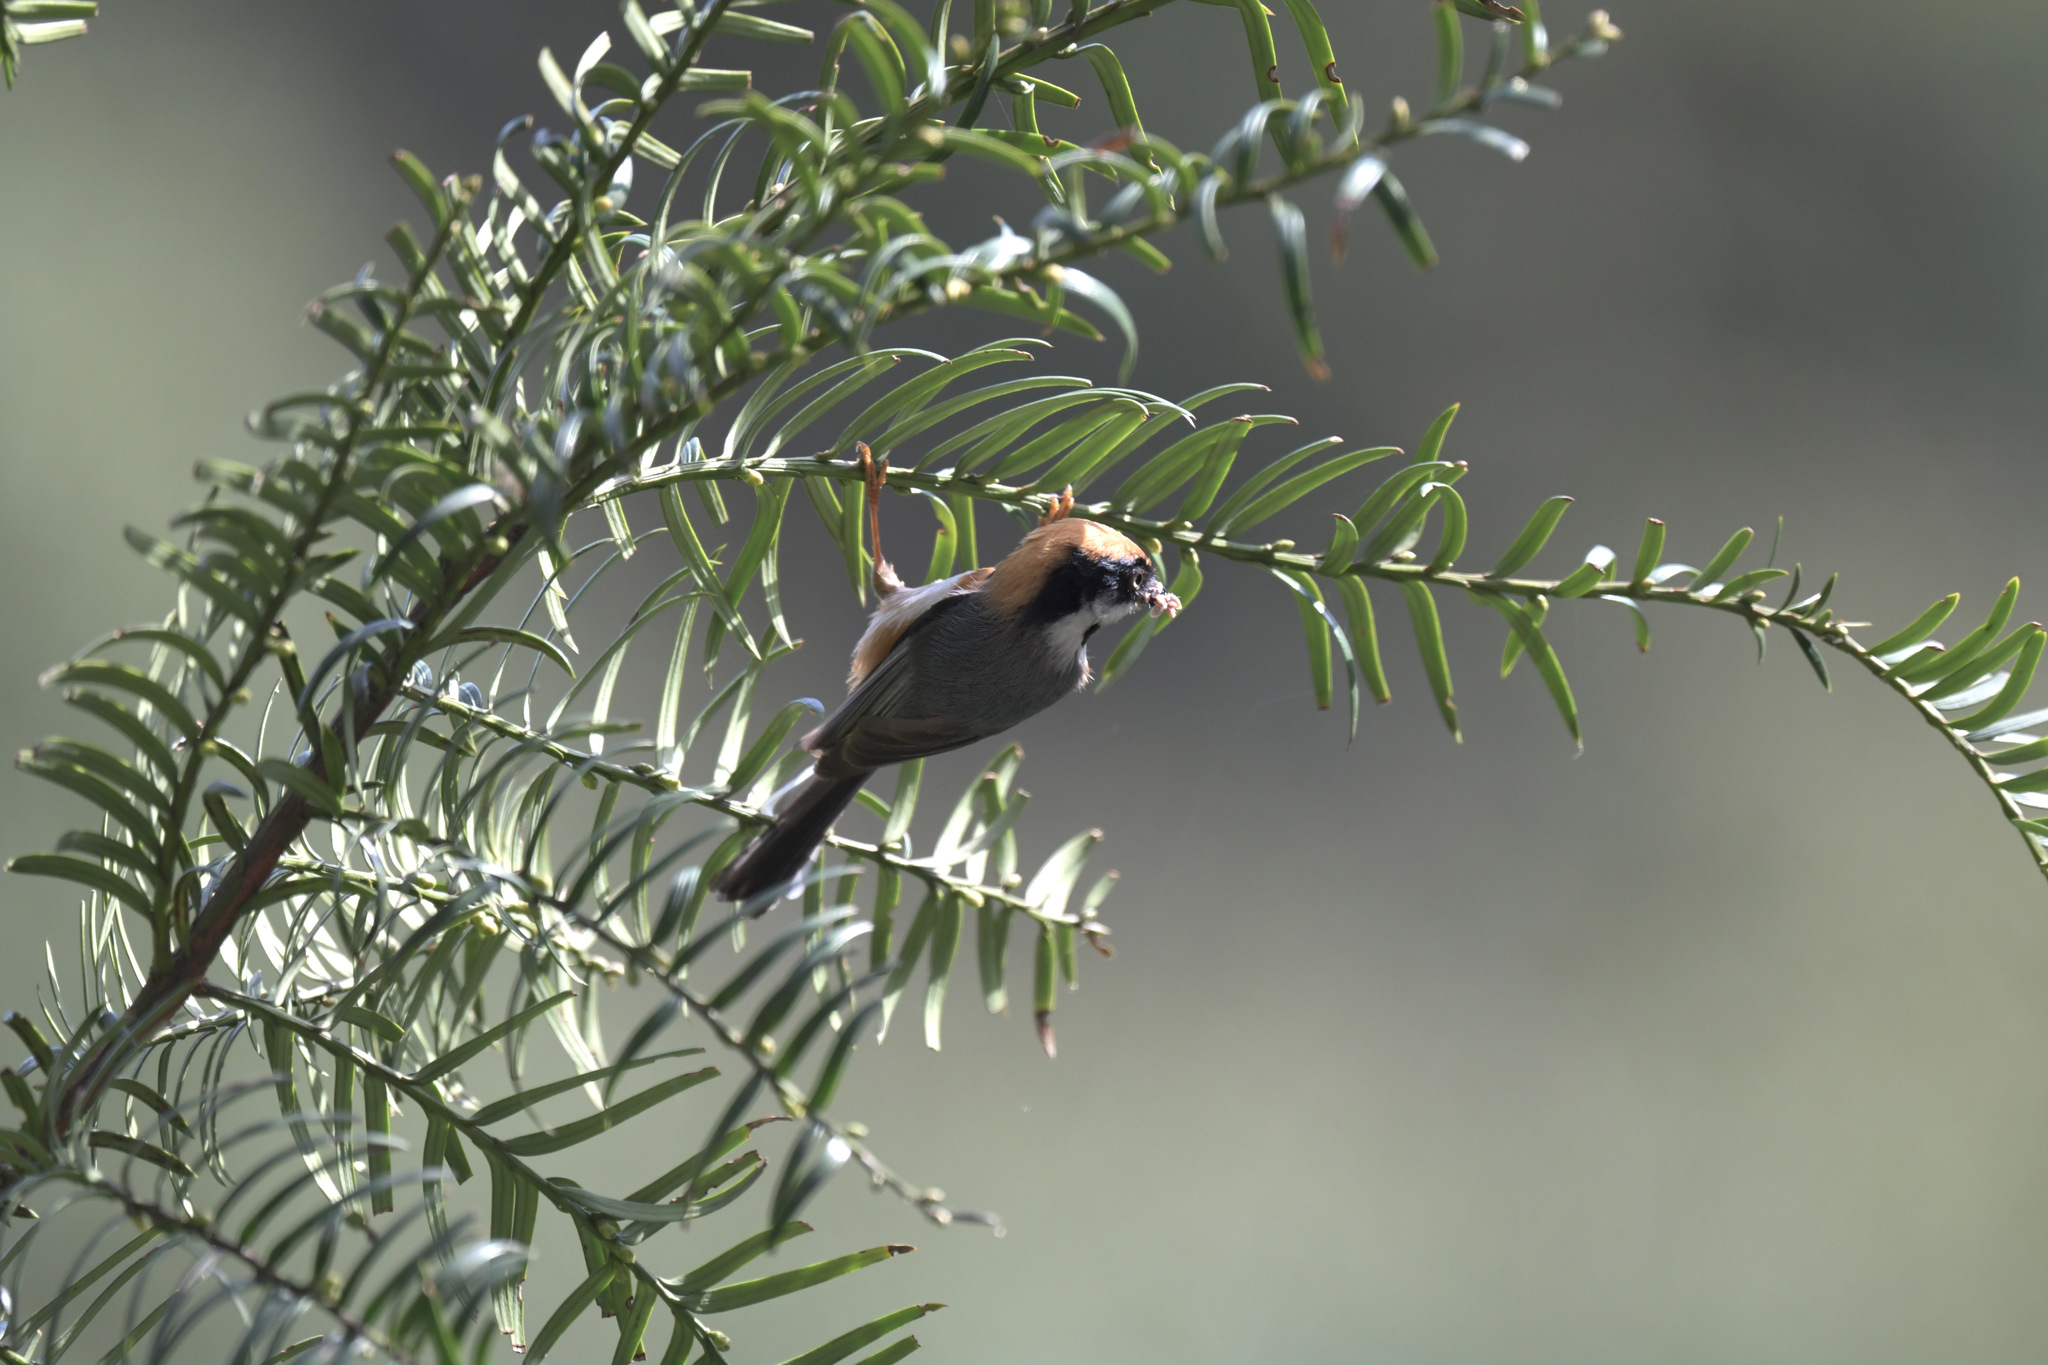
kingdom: Animalia
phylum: Chordata
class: Aves
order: Passeriformes
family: Aegithalidae
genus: Aegithalos
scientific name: Aegithalos concinnus
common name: Black-throated bushtit
